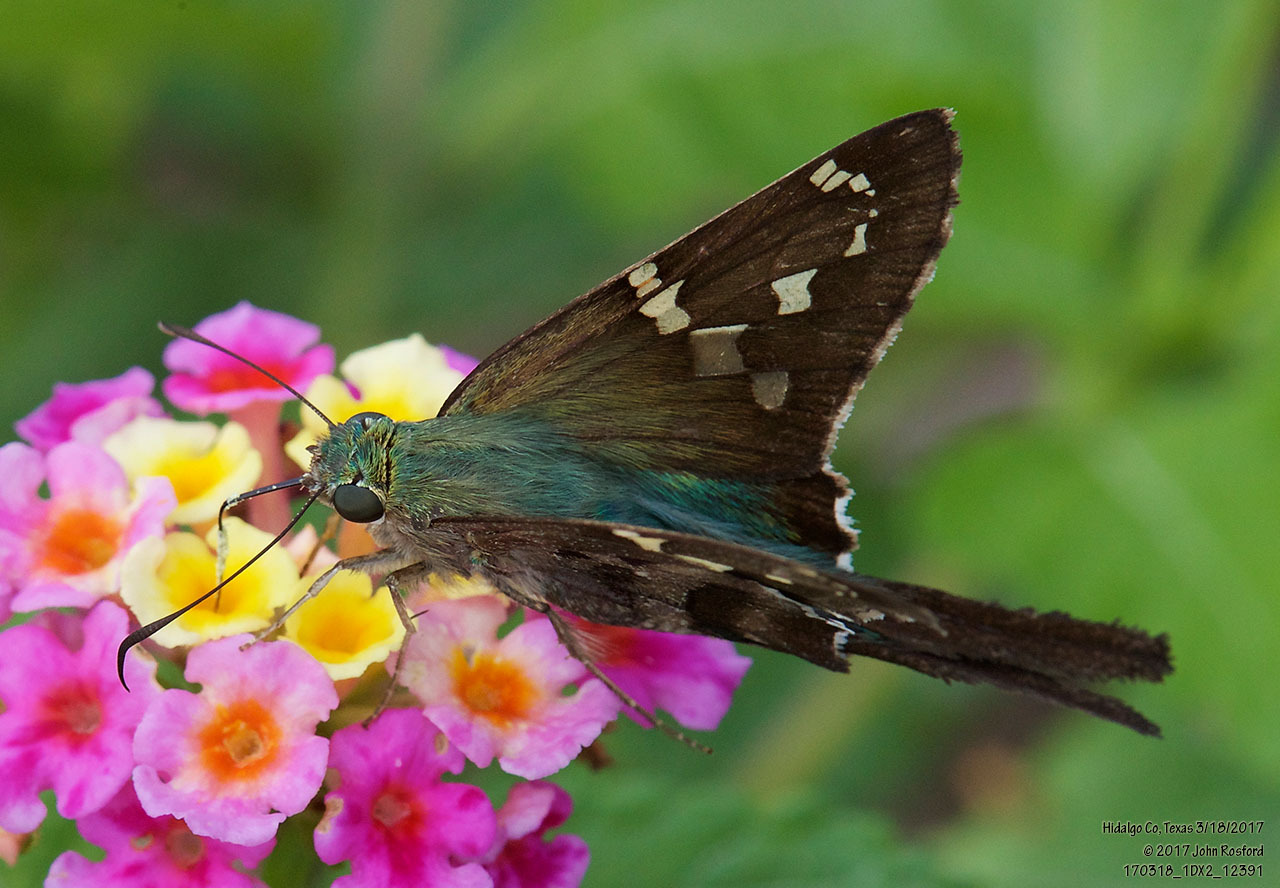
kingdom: Animalia
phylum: Arthropoda
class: Insecta
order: Lepidoptera
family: Hesperiidae
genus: Urbanus
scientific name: Urbanus proteus
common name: Long-tailed skipper
